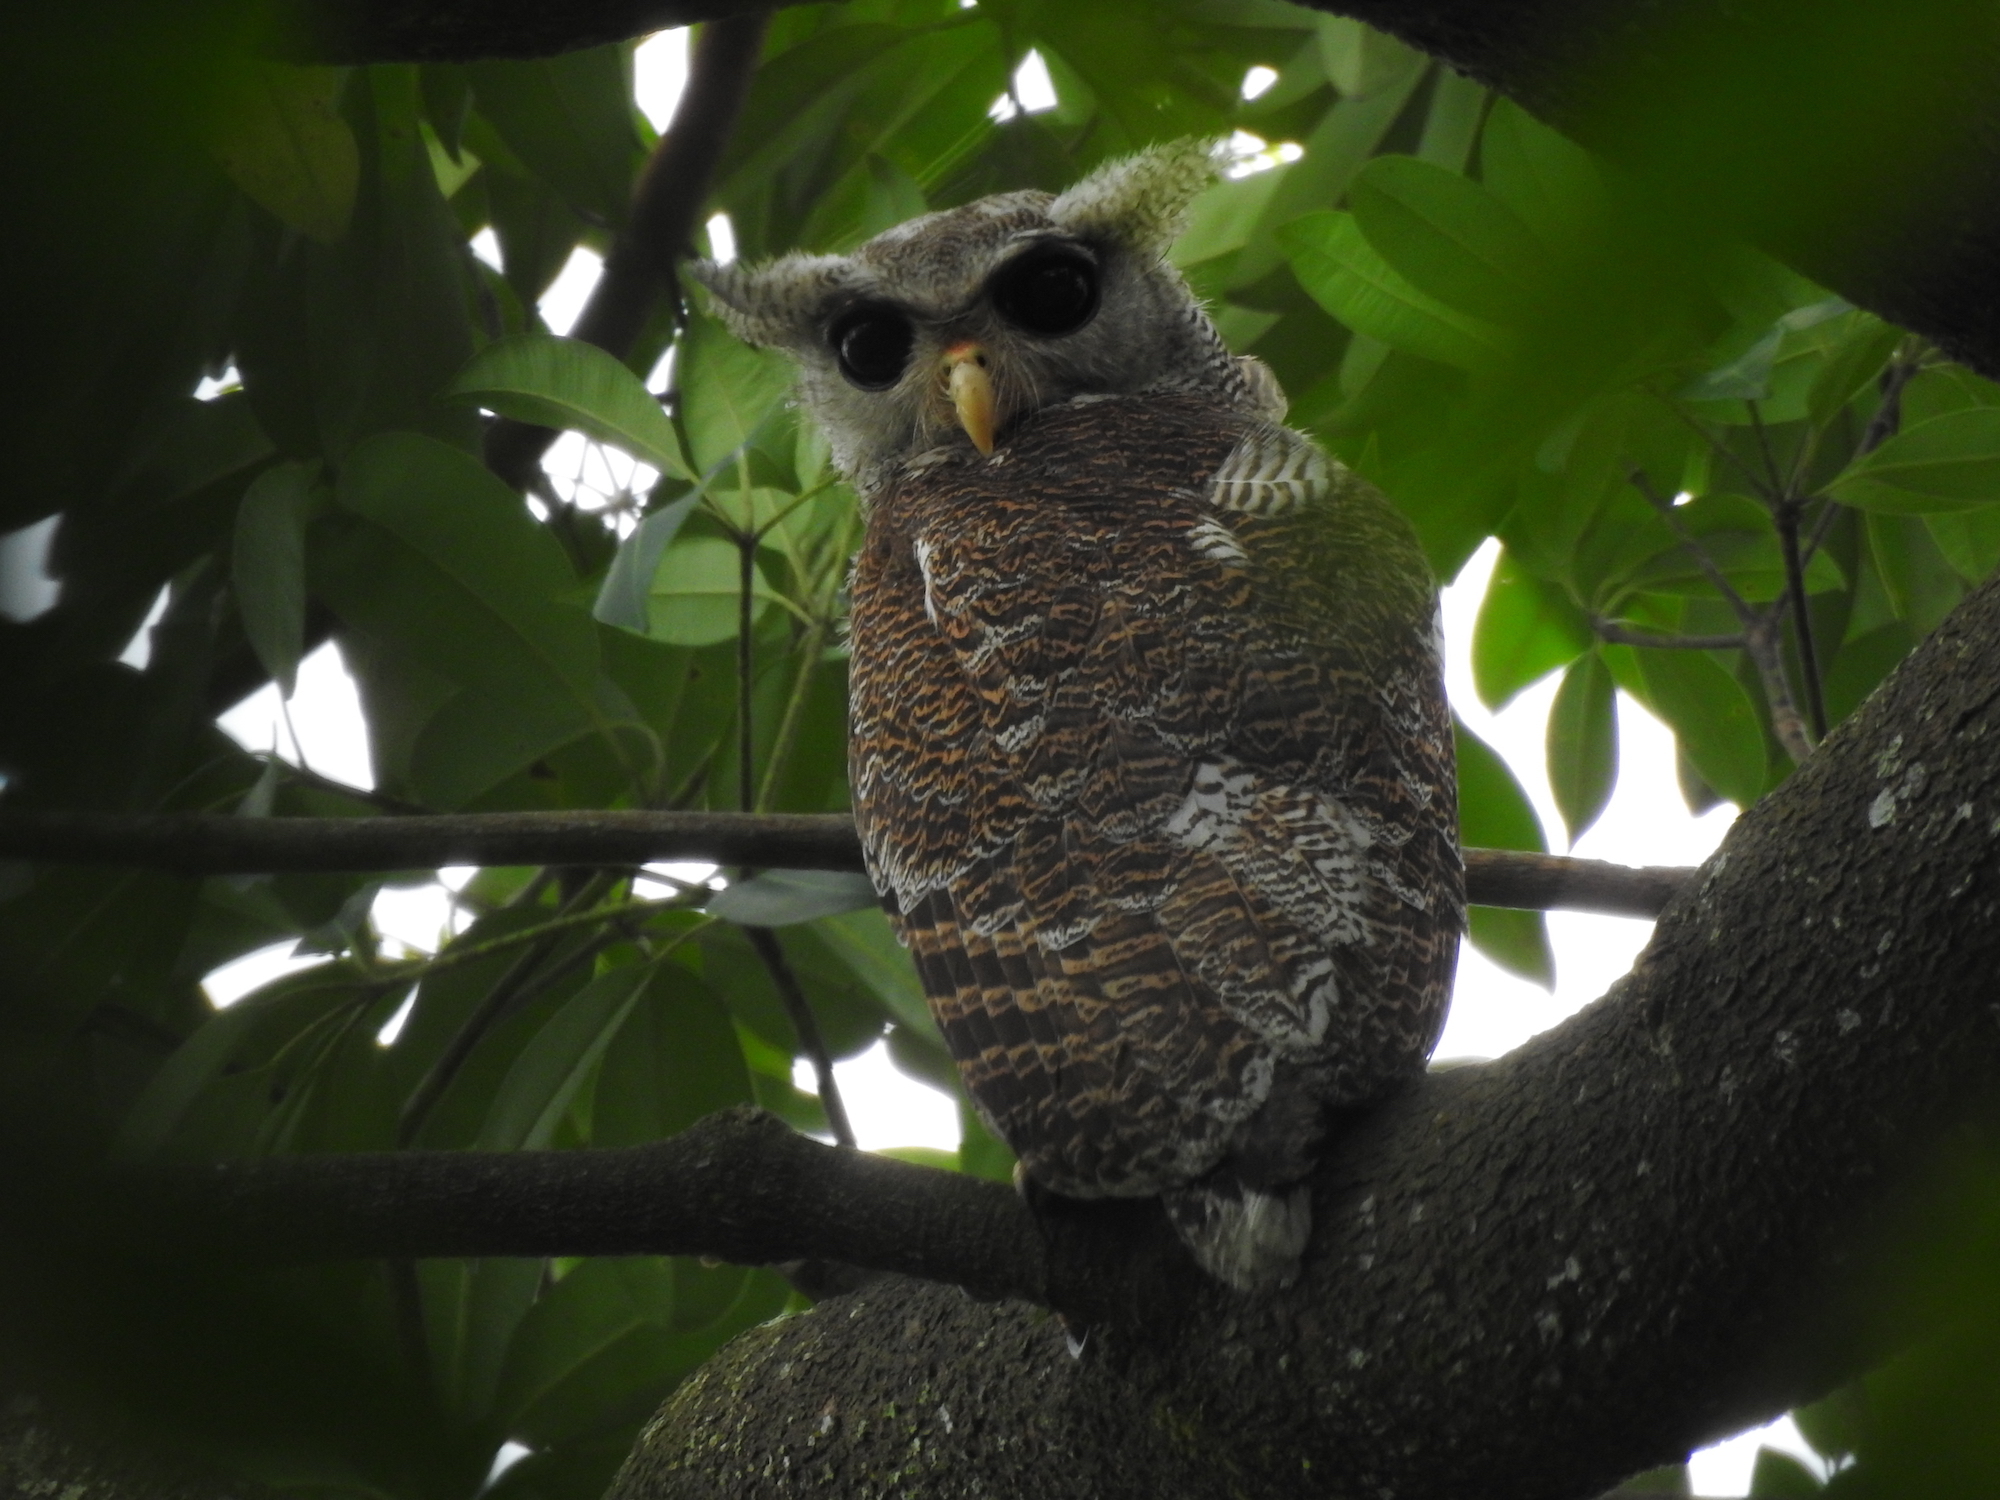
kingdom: Animalia
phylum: Chordata
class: Aves
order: Strigiformes
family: Strigidae
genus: Ketupa
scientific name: Ketupa sumatrana
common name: Barred eagle-owl
